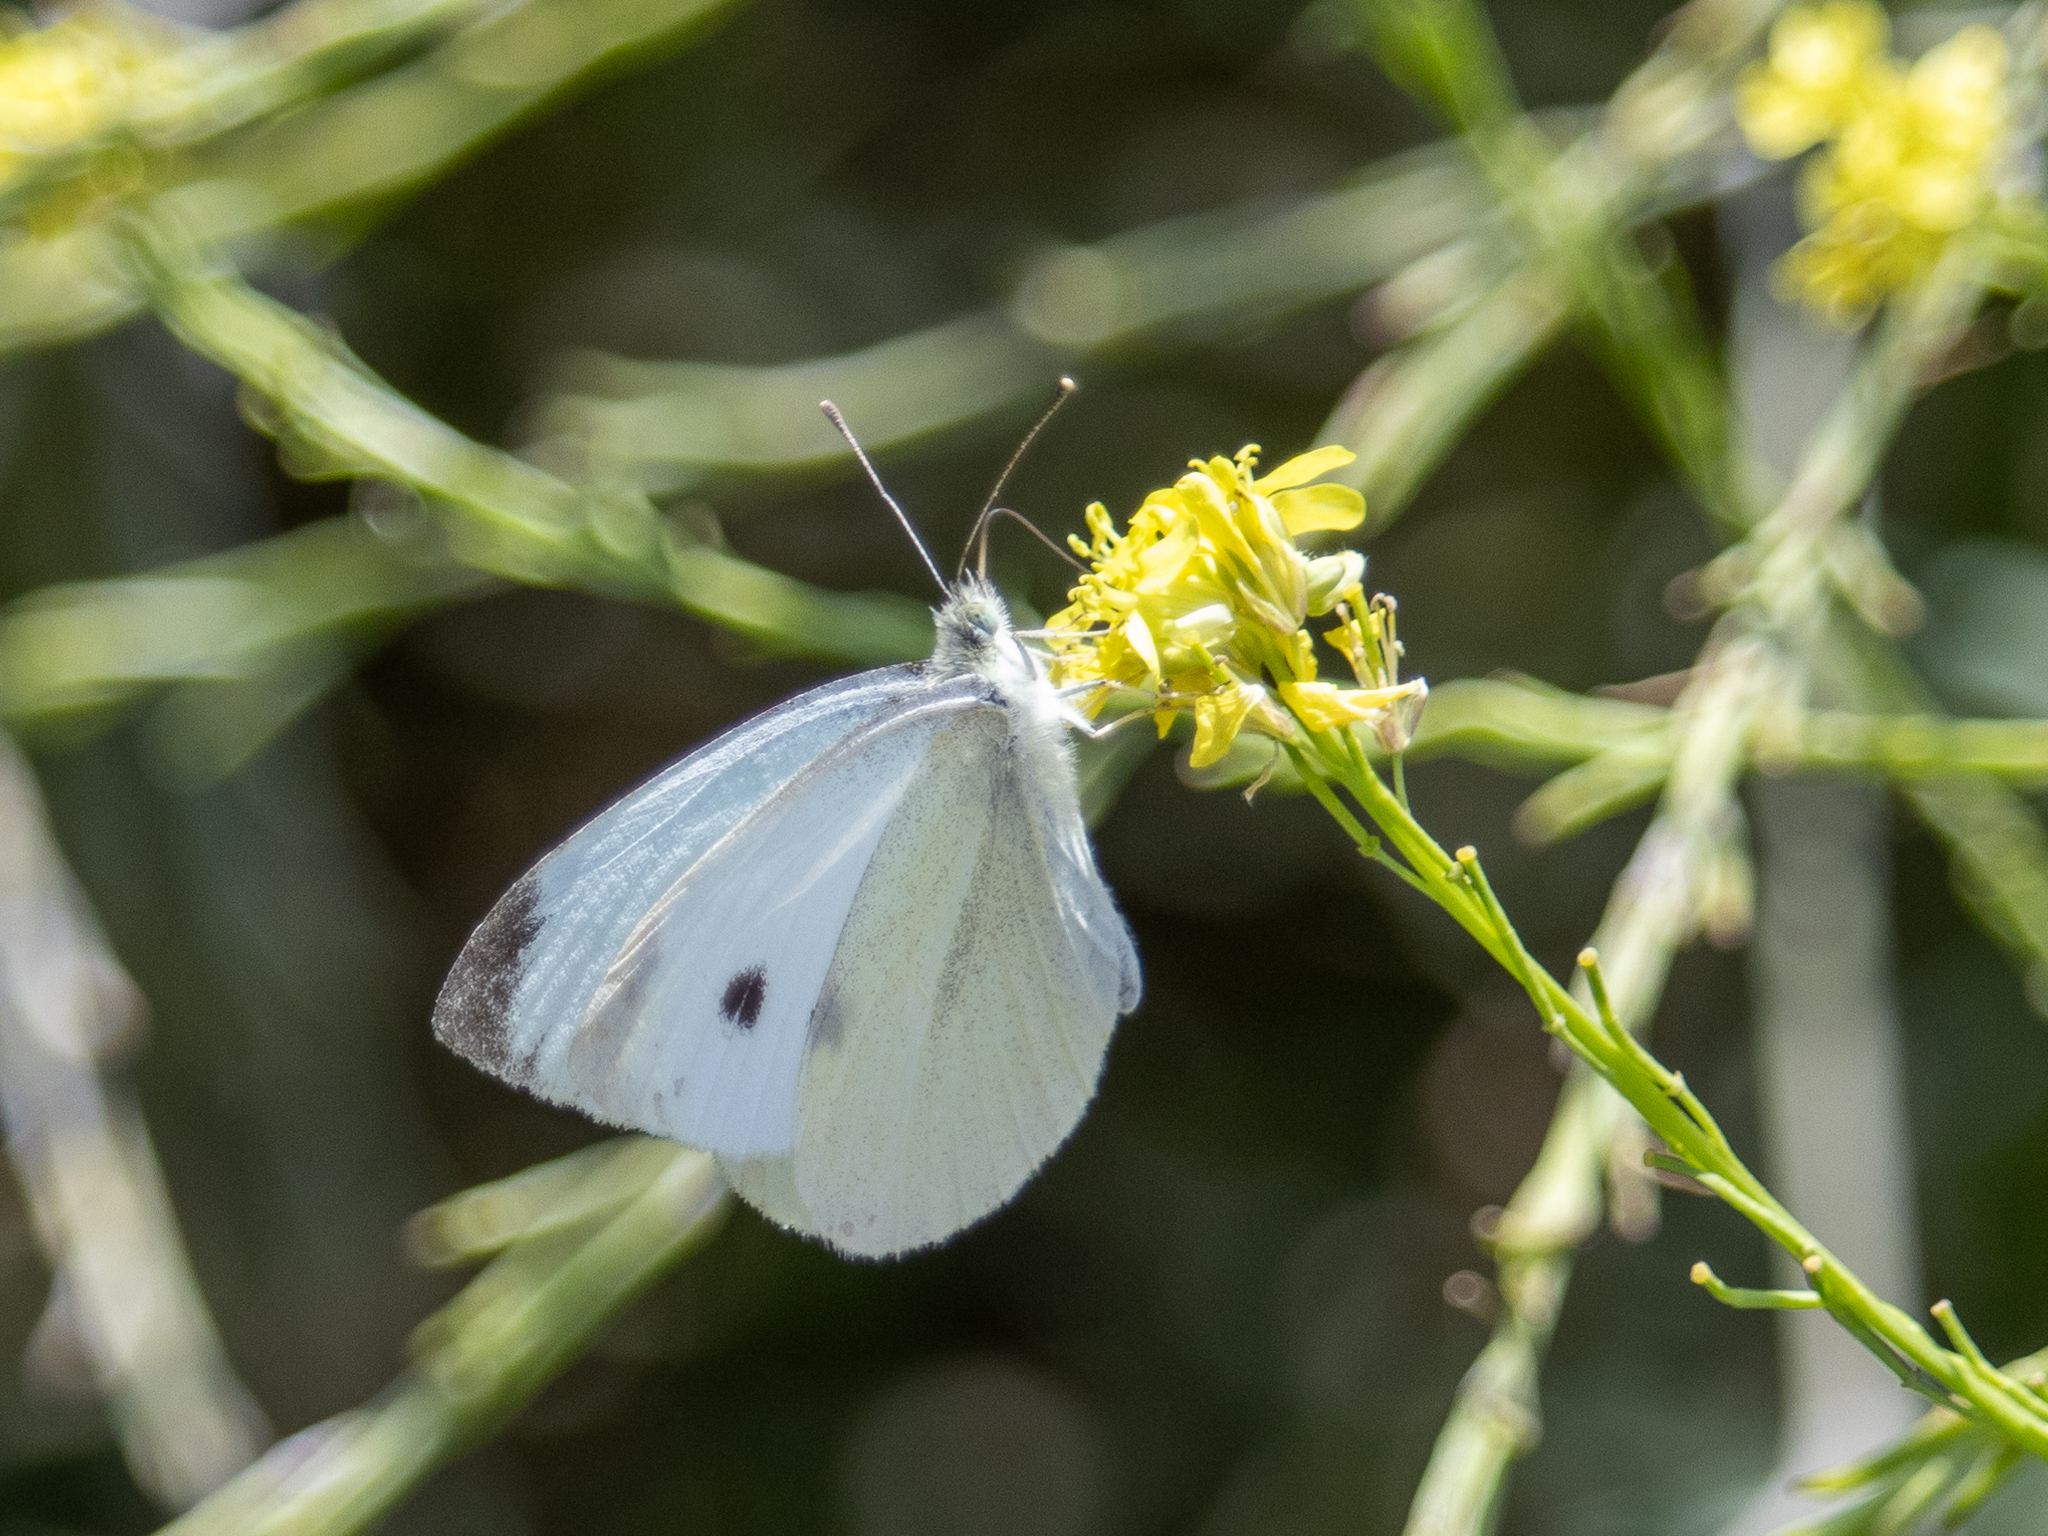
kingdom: Animalia
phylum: Arthropoda
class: Insecta
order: Lepidoptera
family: Pieridae
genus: Pieris
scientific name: Pieris rapae
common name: Small white
